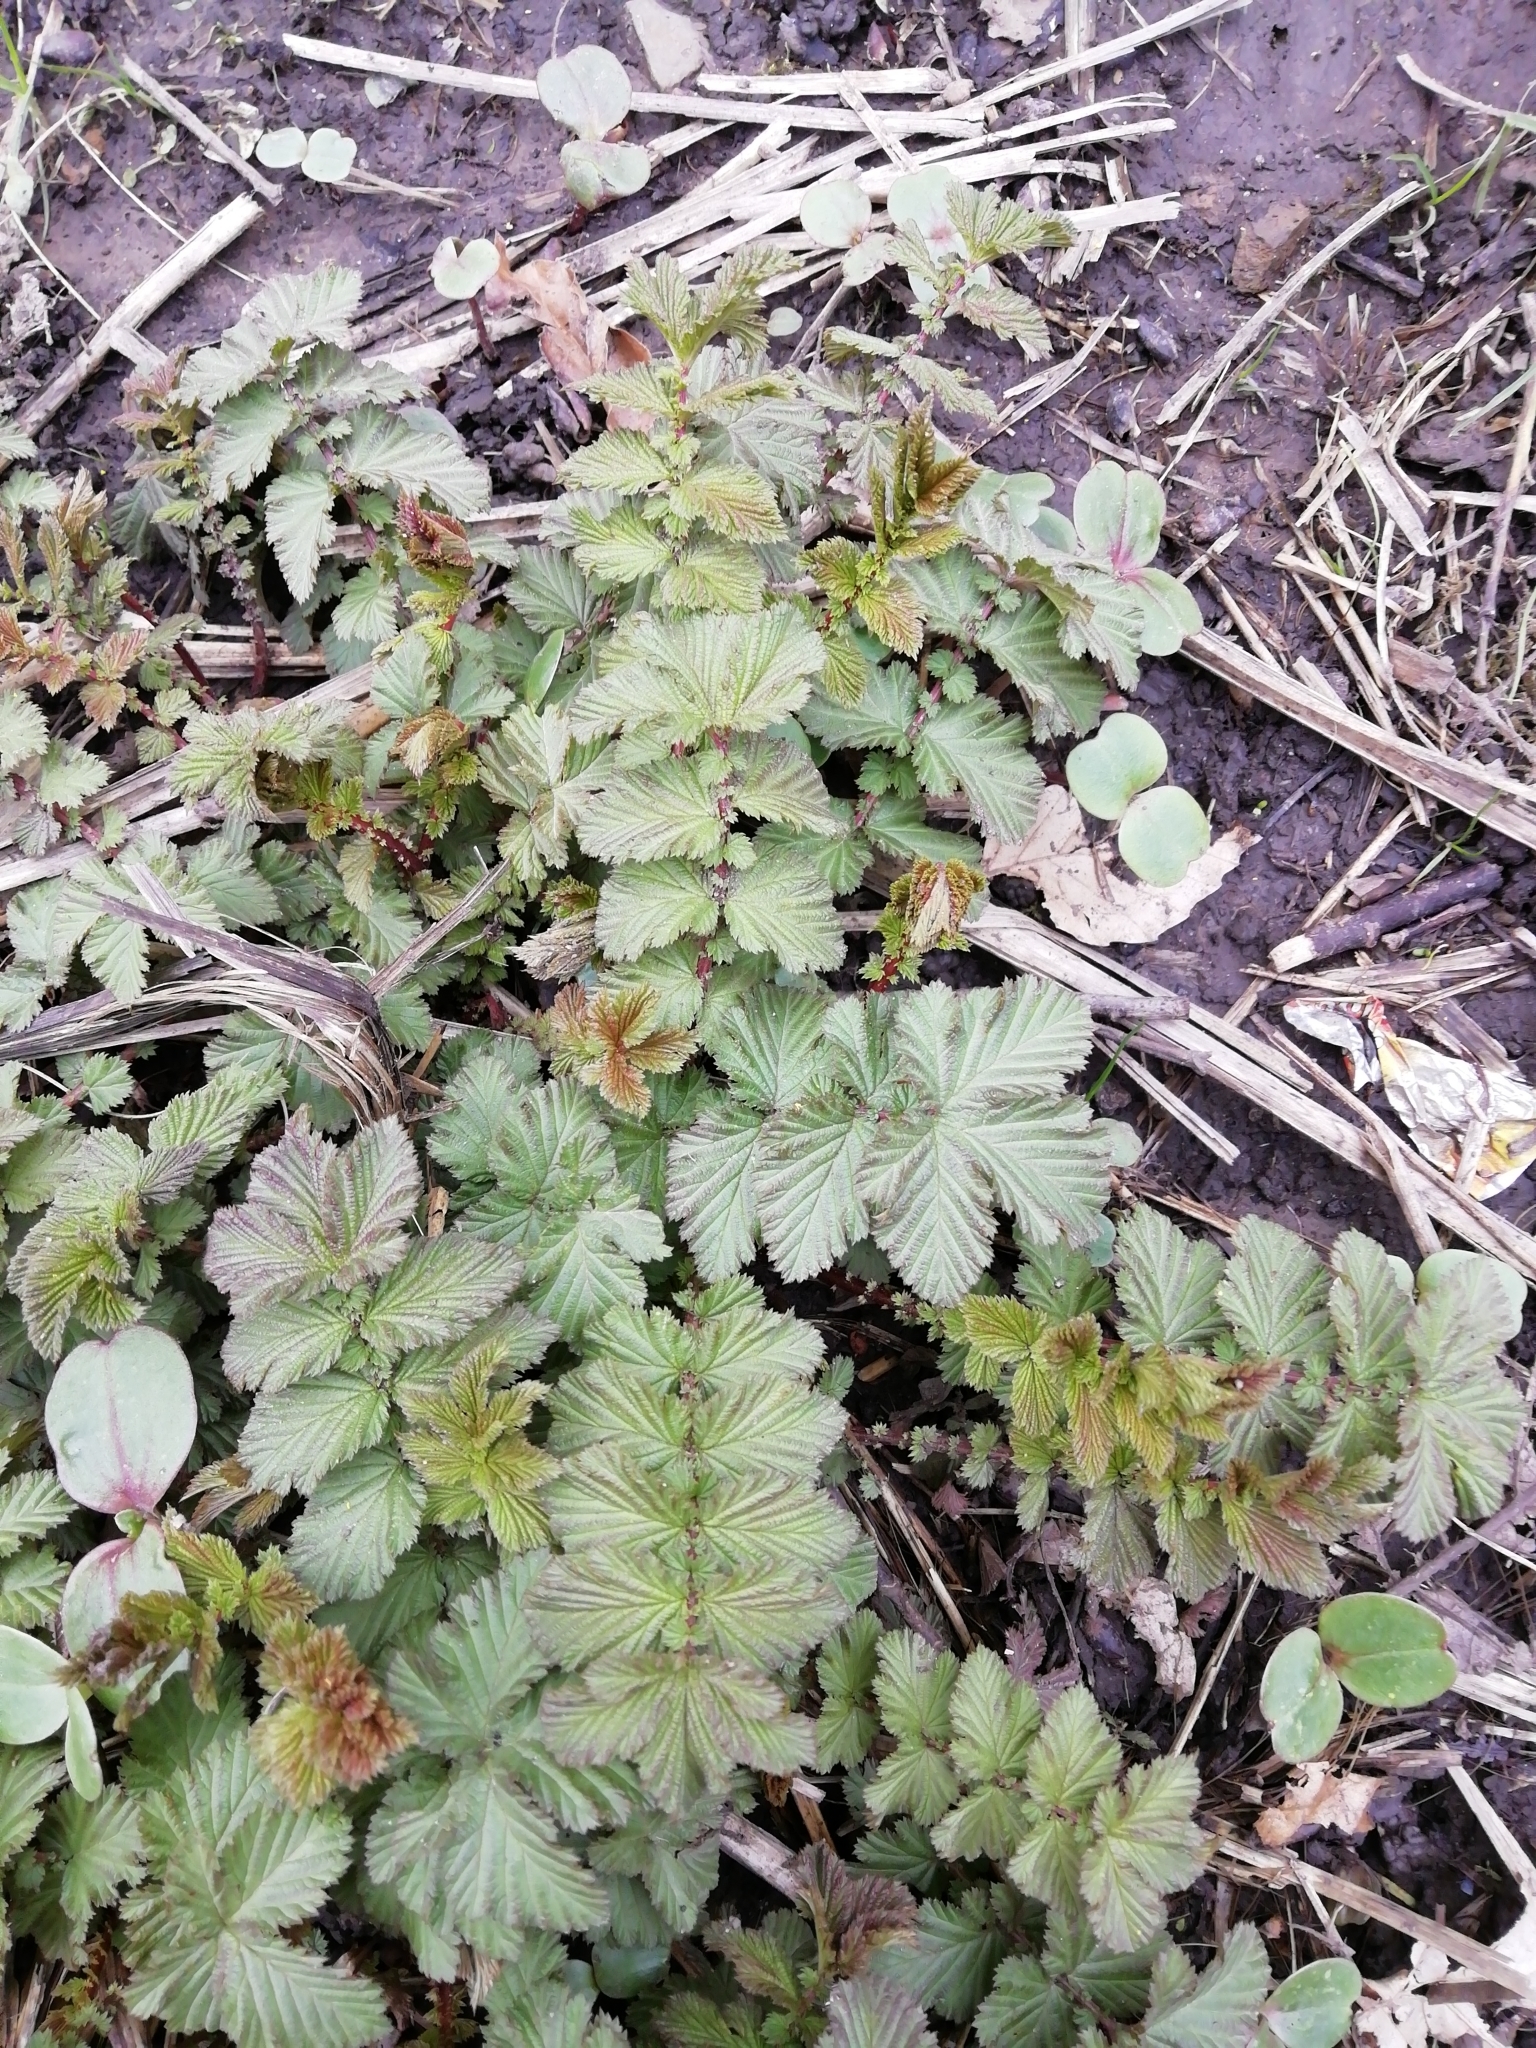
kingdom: Plantae
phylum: Tracheophyta
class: Magnoliopsida
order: Rosales
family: Rosaceae
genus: Filipendula
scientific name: Filipendula ulmaria
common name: Meadowsweet
